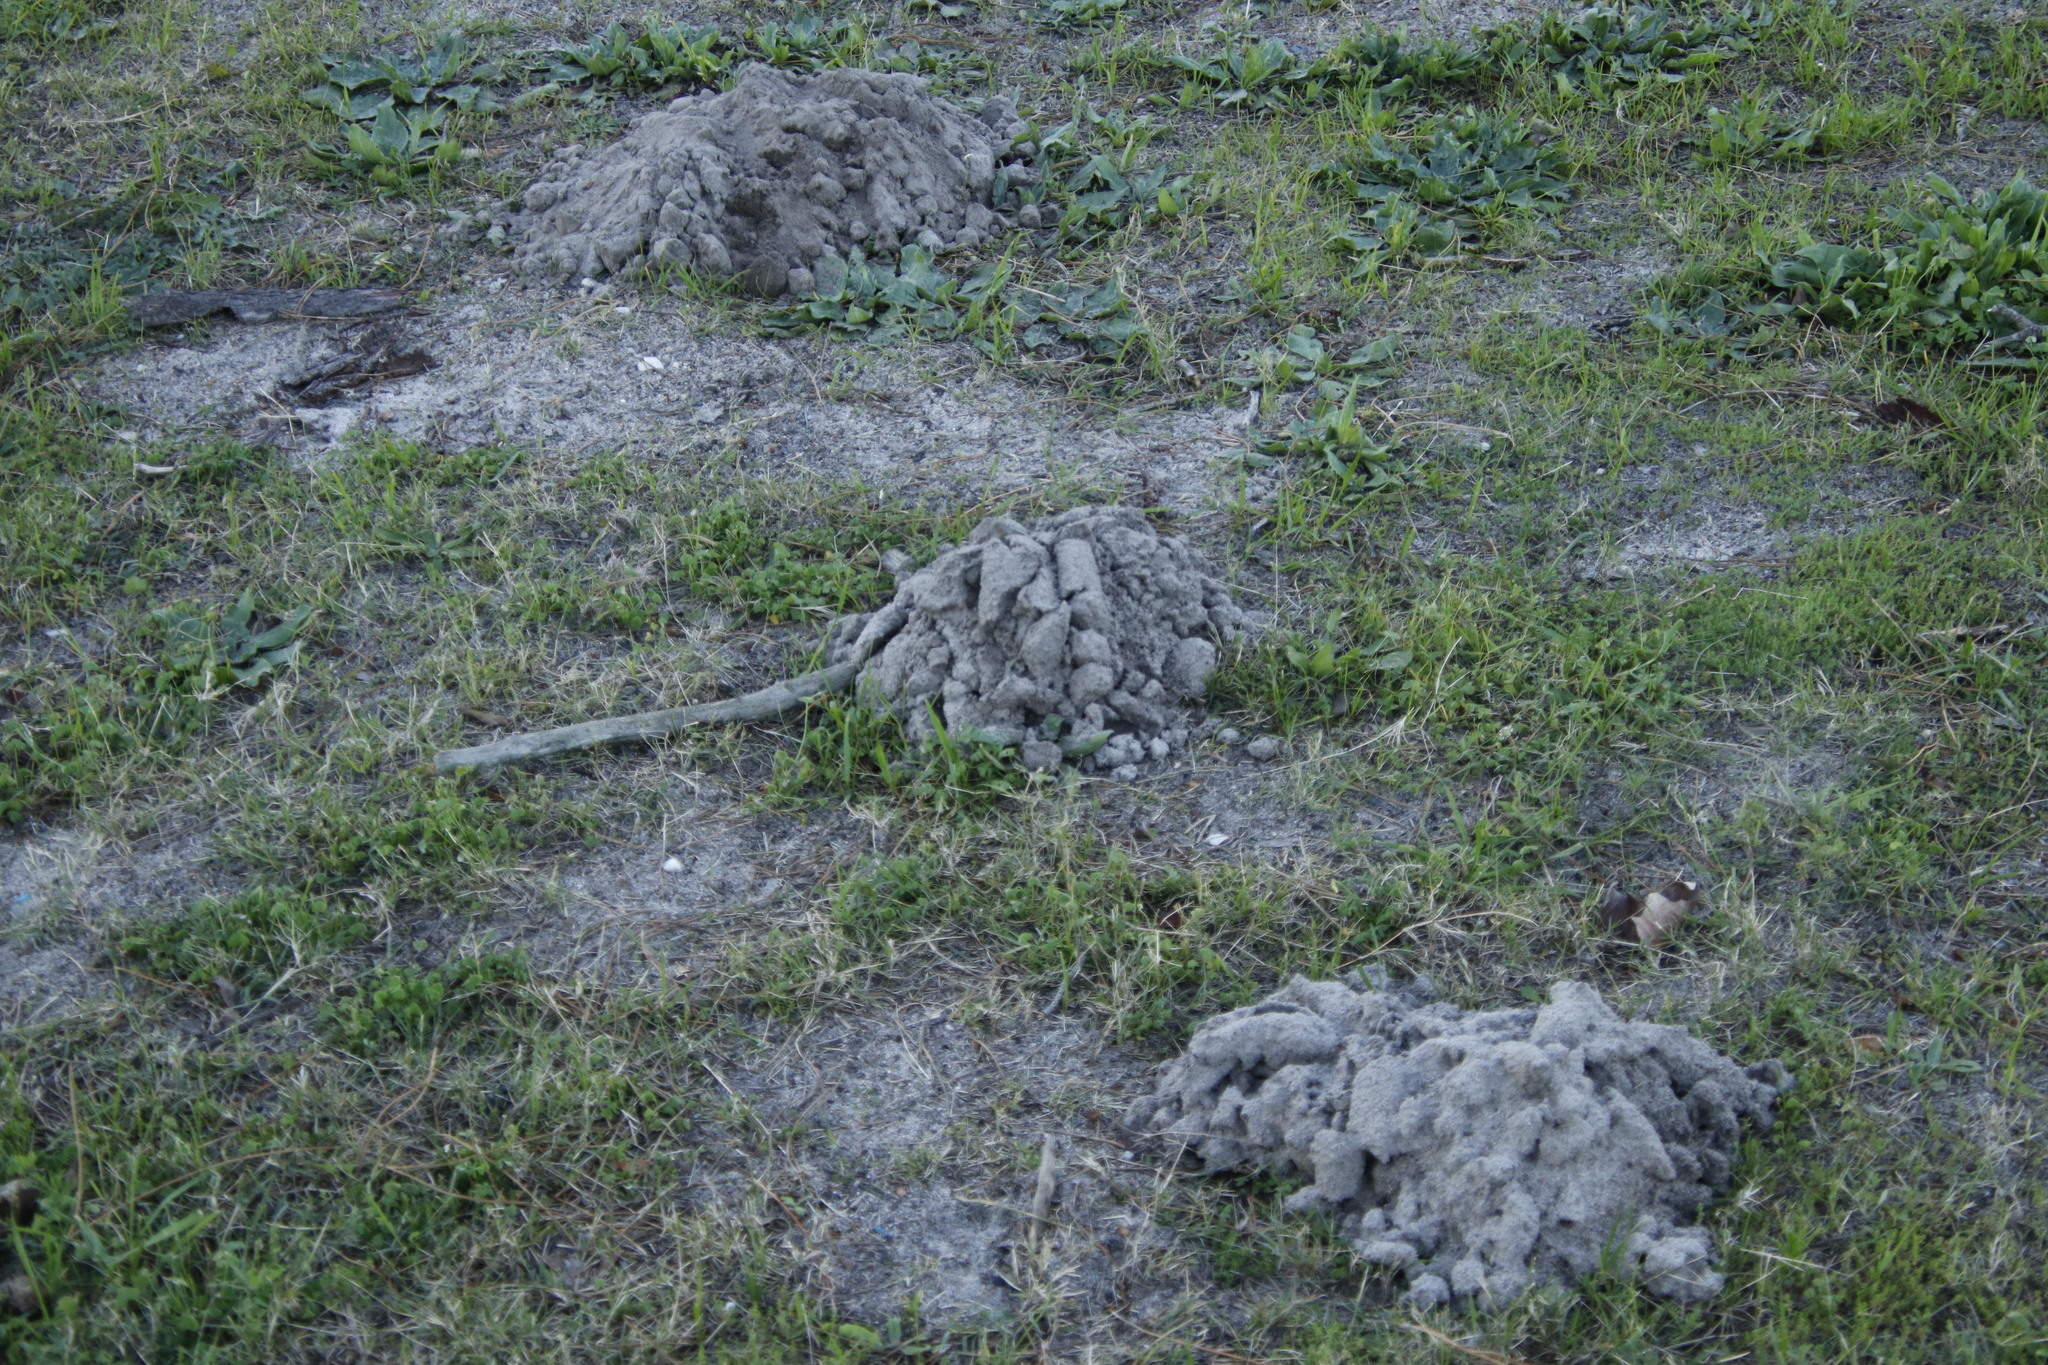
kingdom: Animalia
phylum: Chordata
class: Mammalia
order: Rodentia
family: Bathyergidae
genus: Bathyergus
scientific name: Bathyergus suillus
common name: Cape dune mole rat
